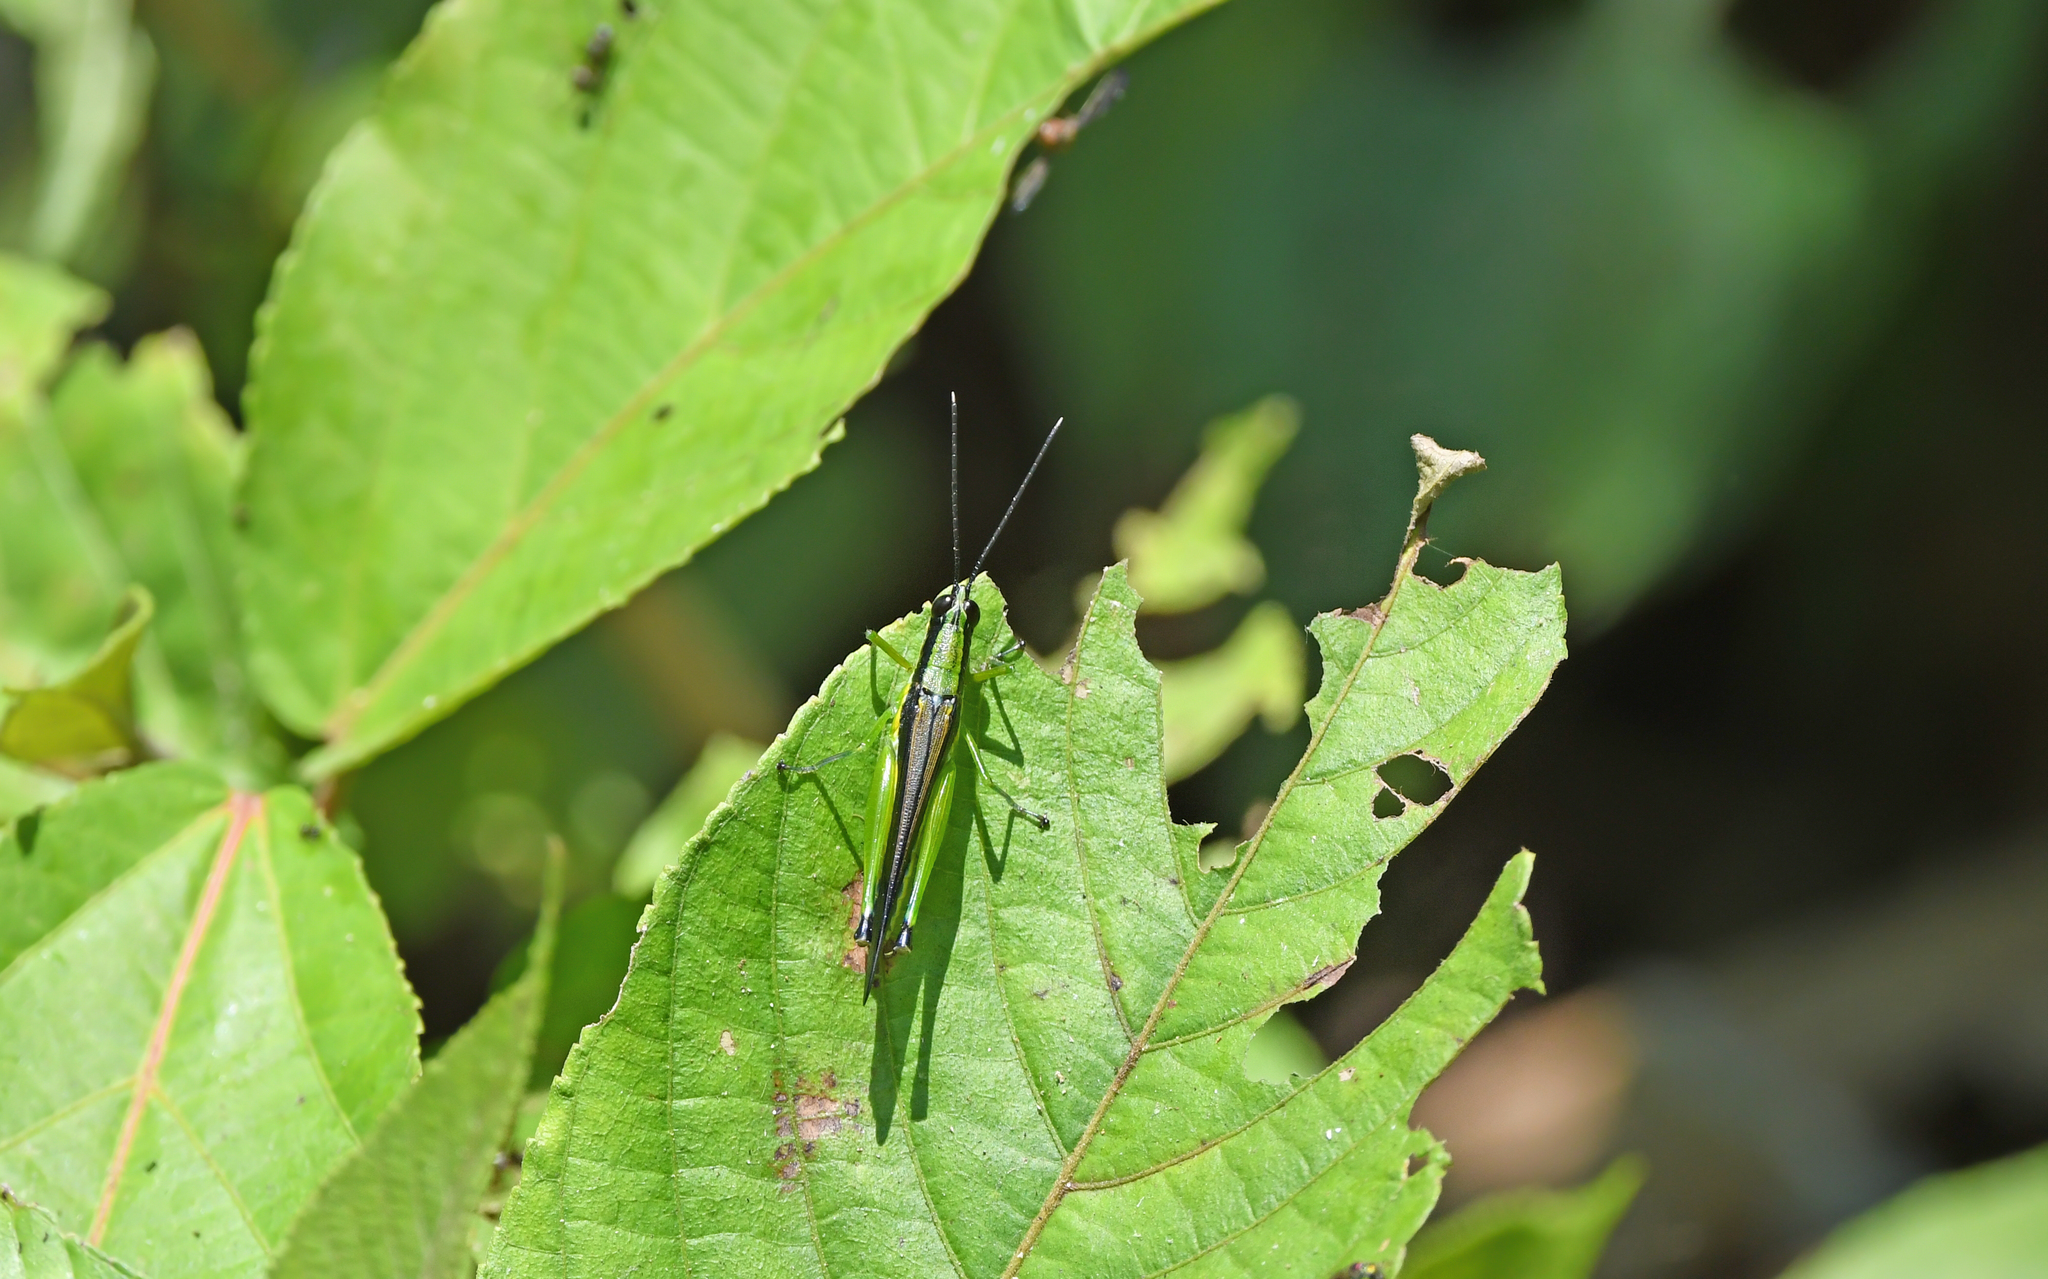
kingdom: Animalia
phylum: Arthropoda
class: Insecta
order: Orthoptera
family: Acrididae
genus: Stenopola
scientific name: Stenopola boliviana
